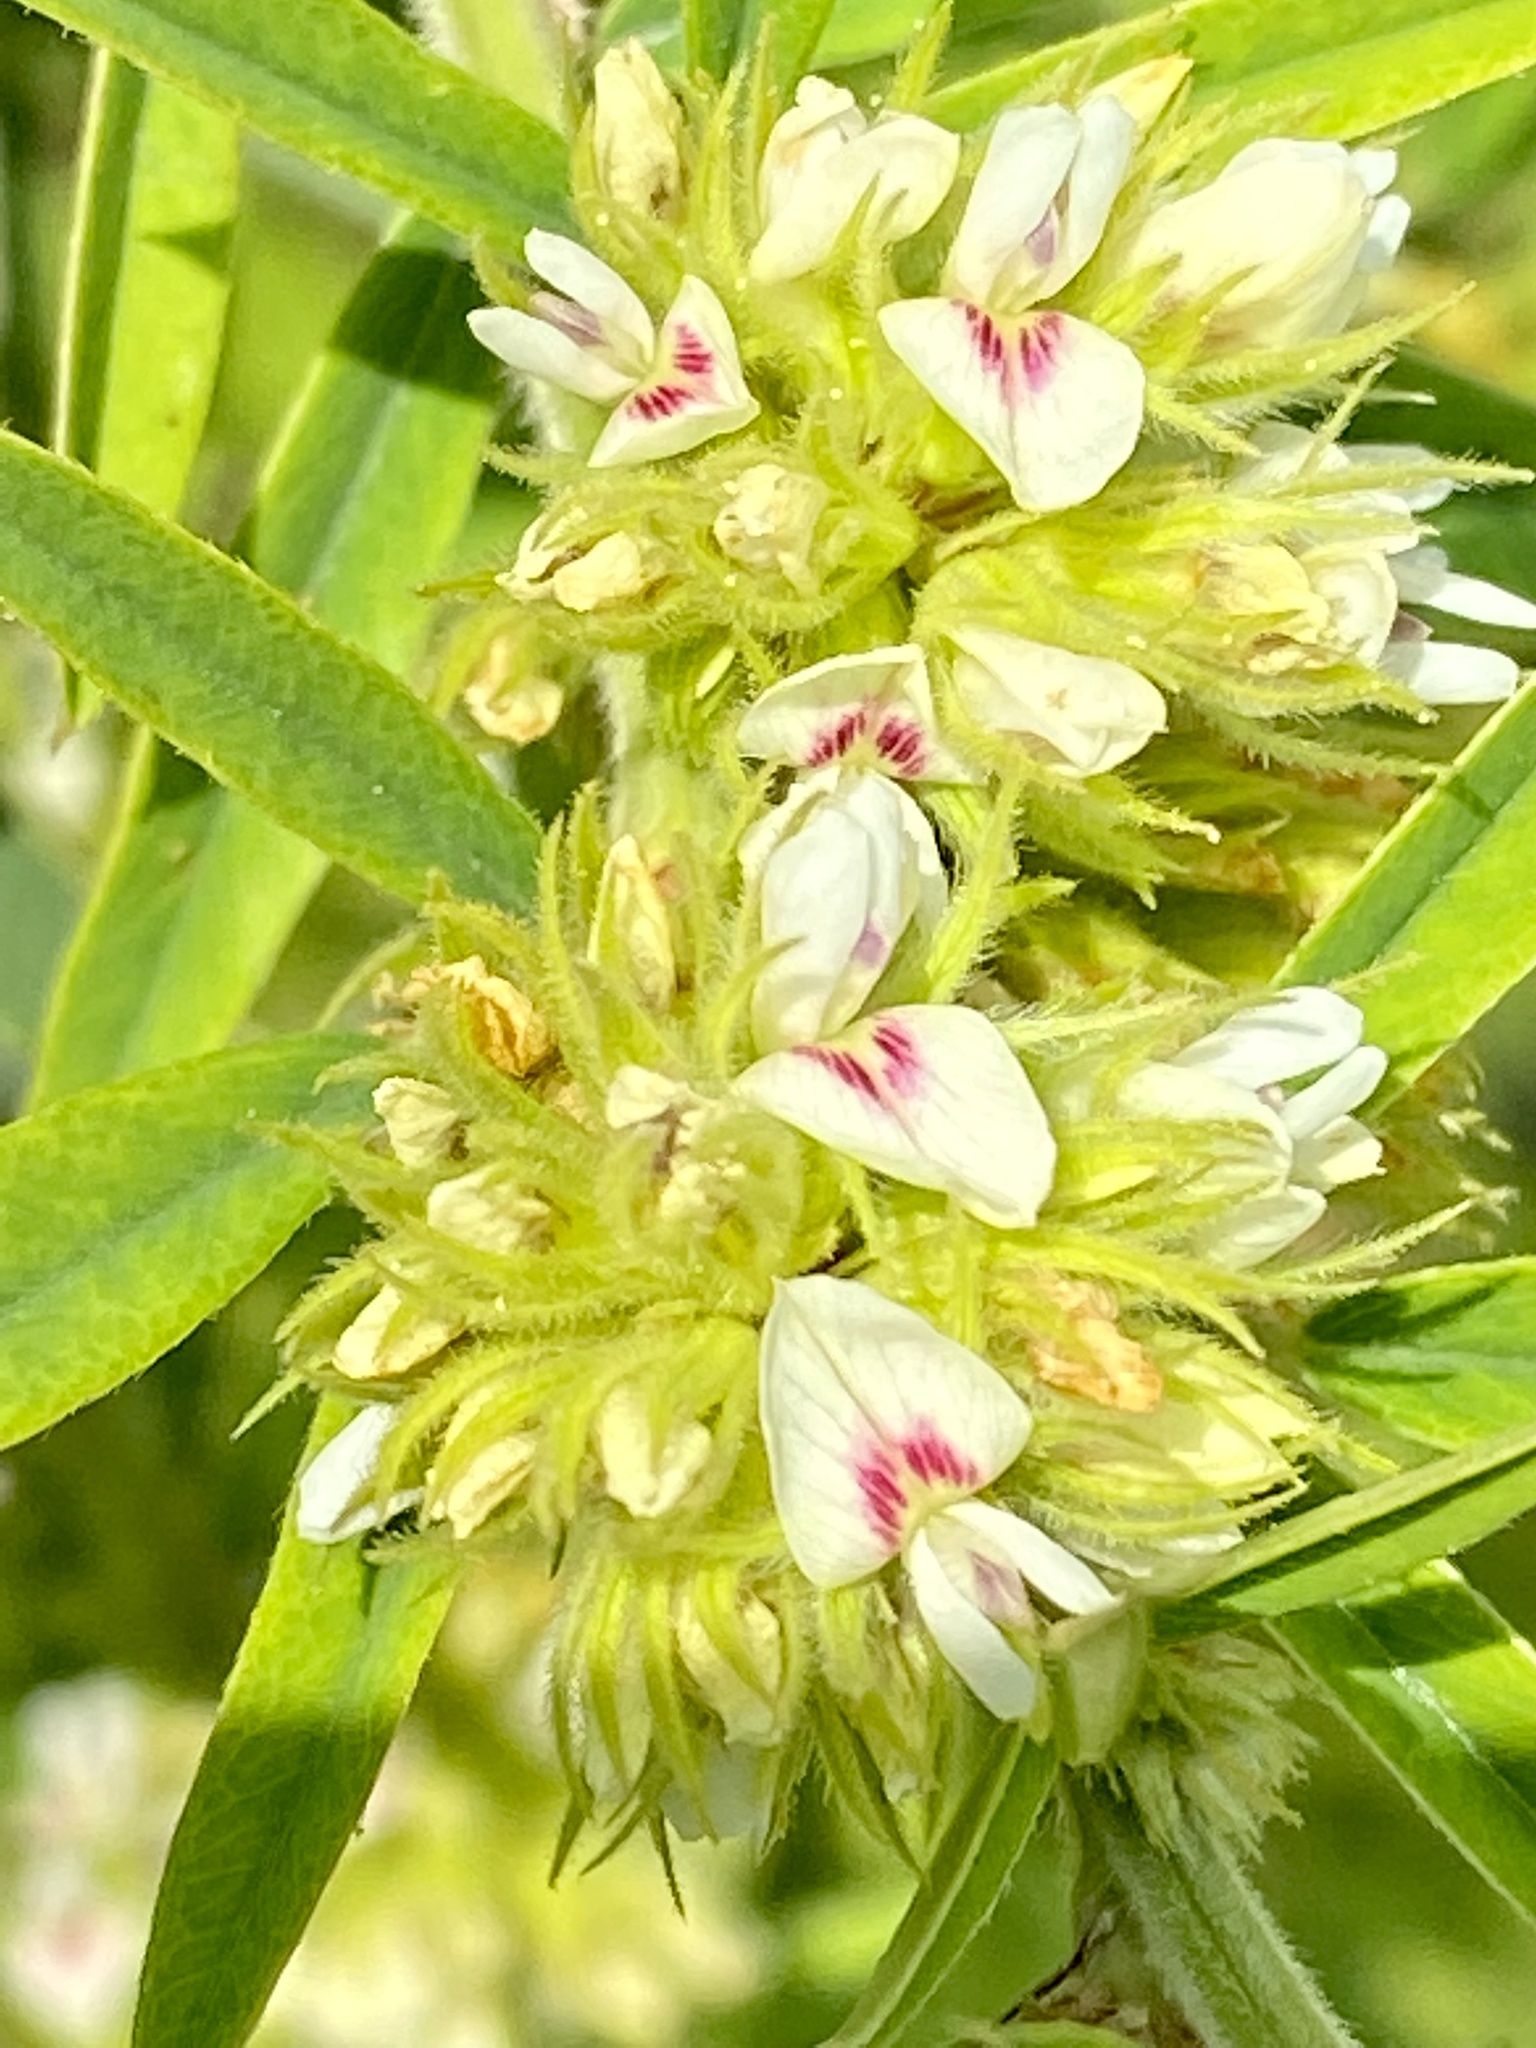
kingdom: Plantae
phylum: Tracheophyta
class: Magnoliopsida
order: Fabales
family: Fabaceae
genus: Lespedeza
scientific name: Lespedeza capitata
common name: Dusty clover
